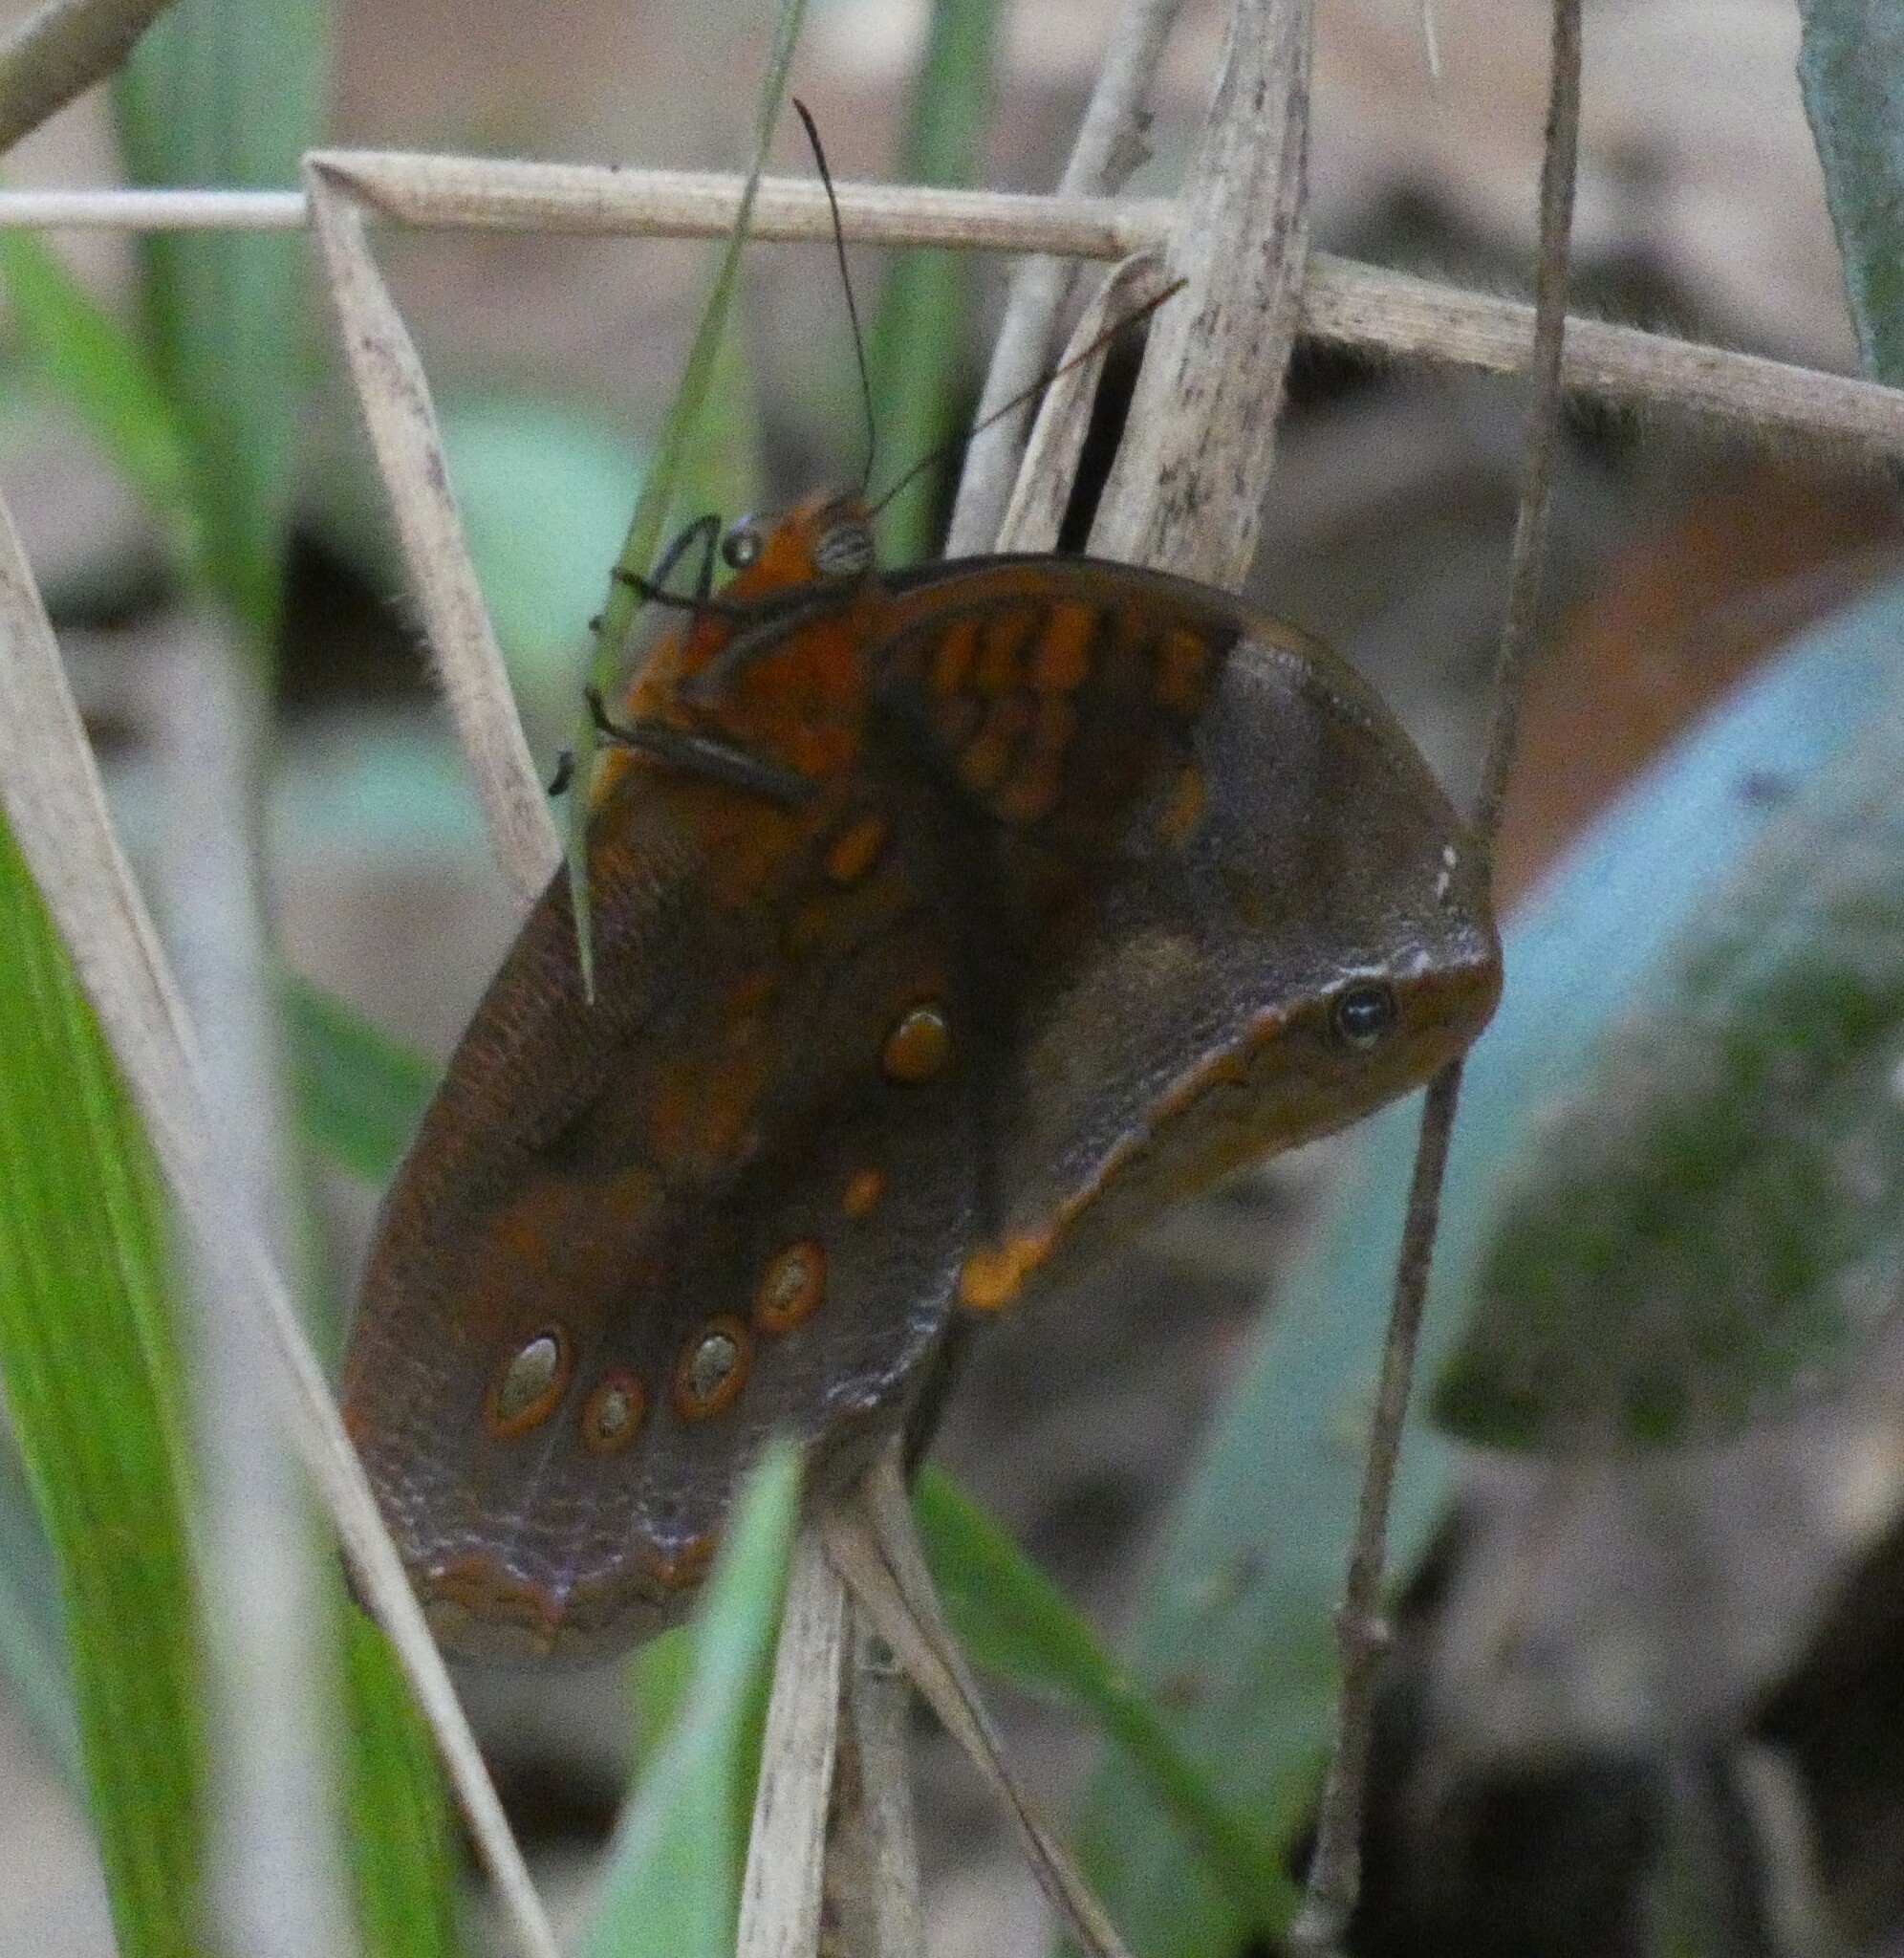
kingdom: Animalia
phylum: Arthropoda
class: Insecta
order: Lepidoptera
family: Nymphalidae
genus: Catoblepia
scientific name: Catoblepia berecynthia
